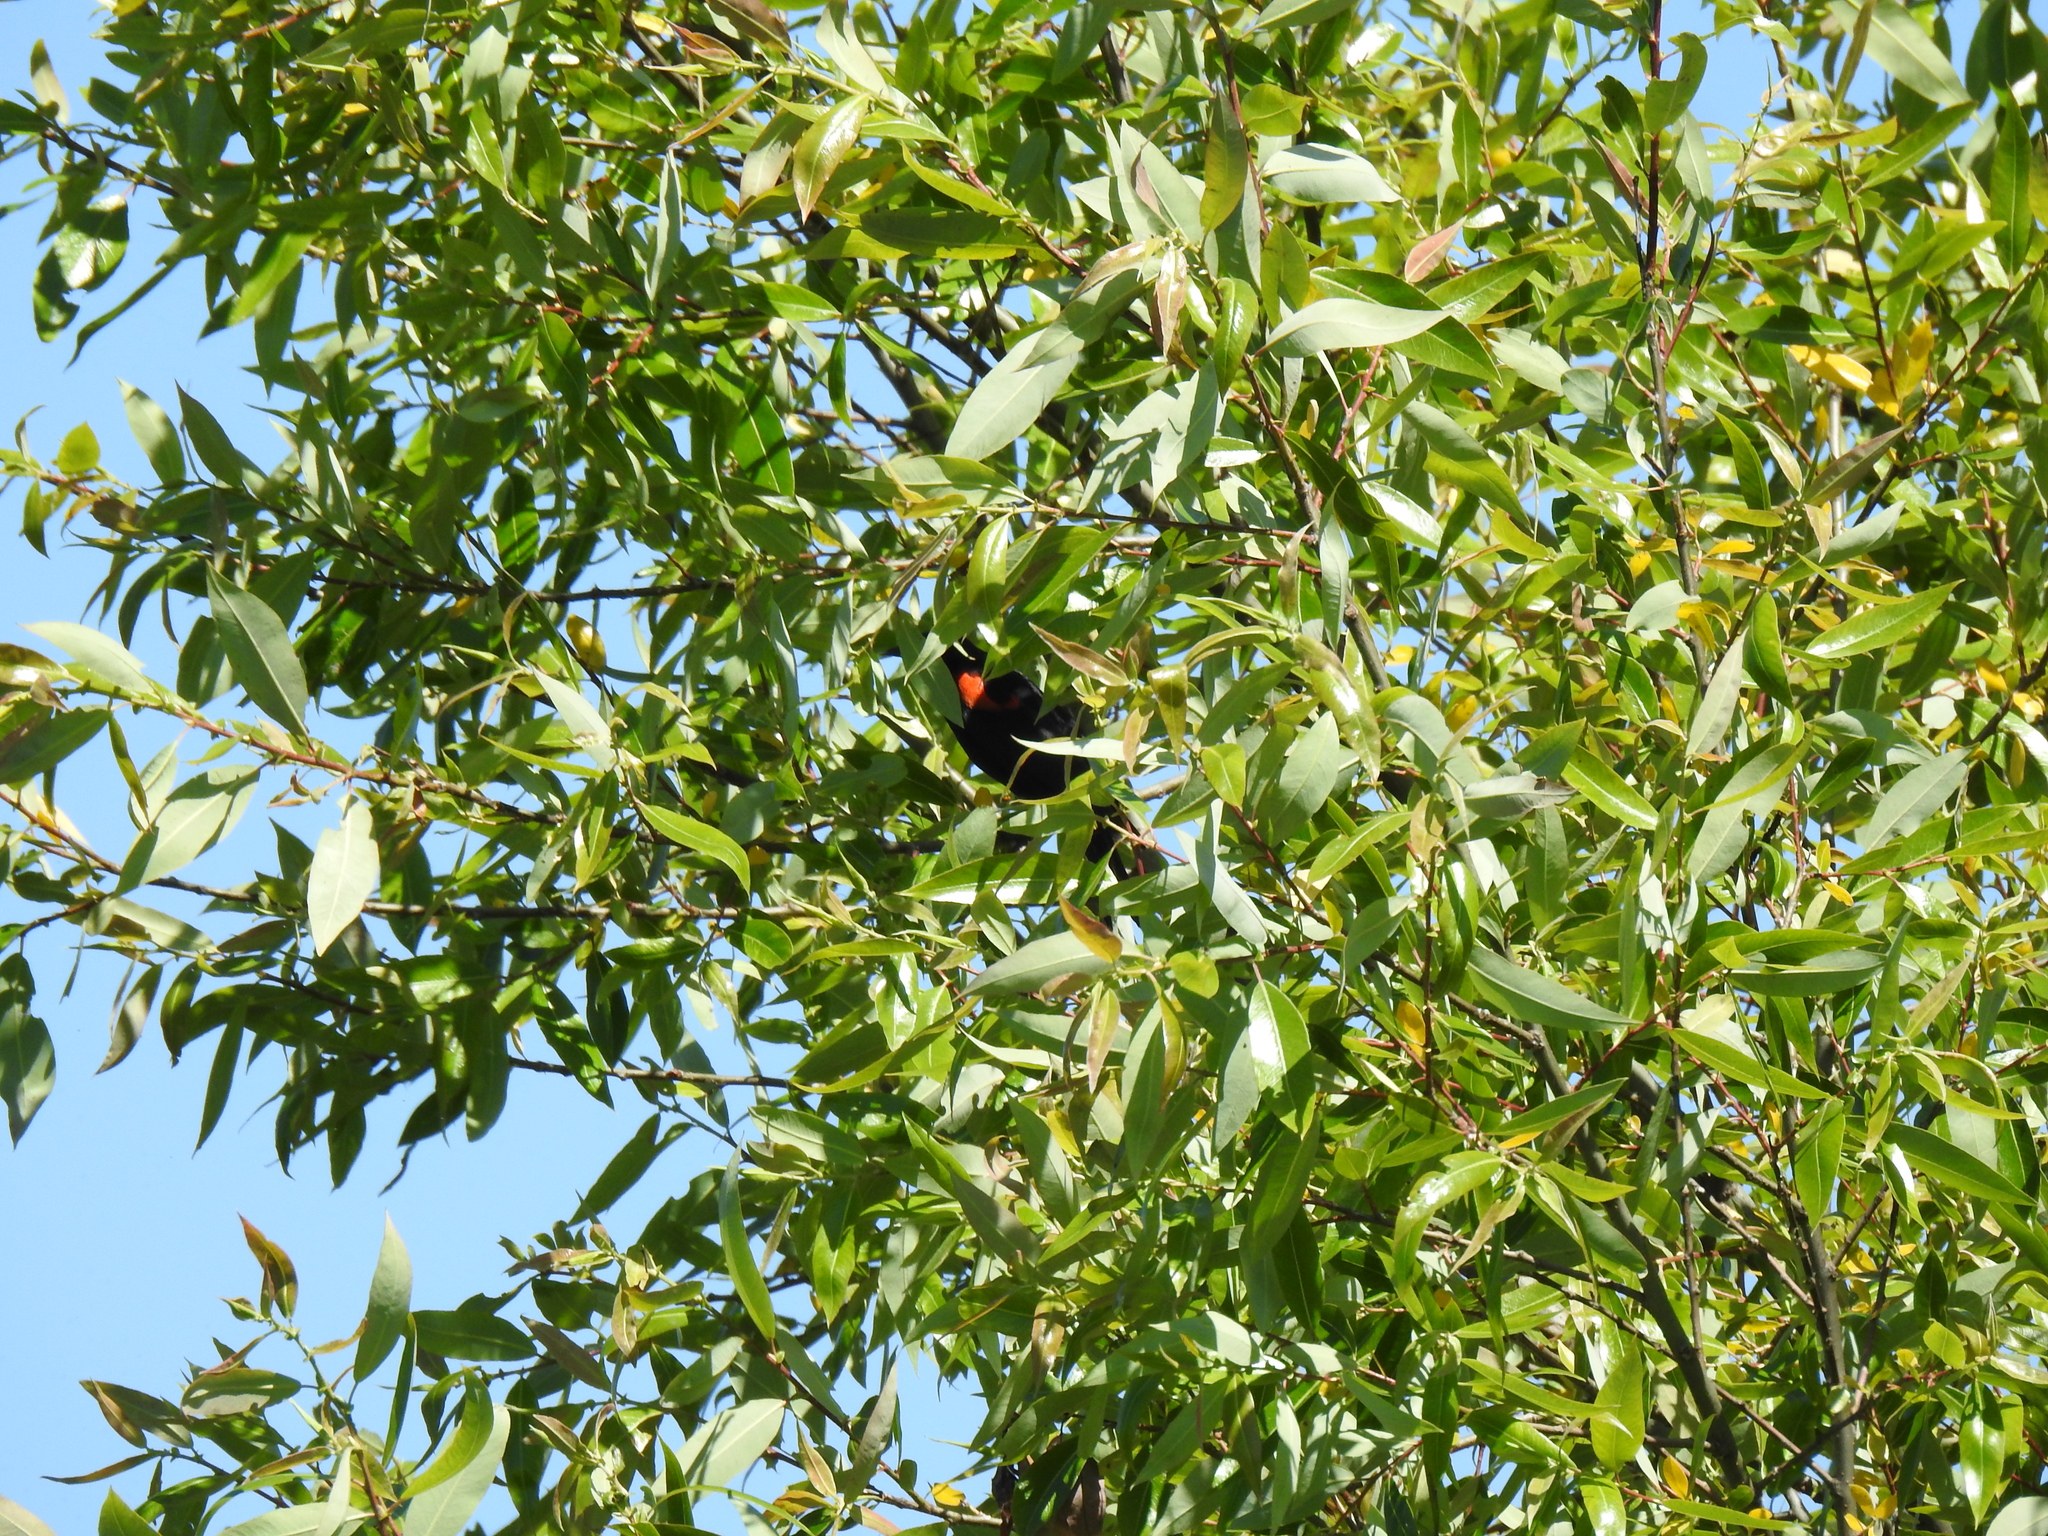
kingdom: Animalia
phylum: Chordata
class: Aves
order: Passeriformes
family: Icteridae
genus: Agelaius
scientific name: Agelaius phoeniceus
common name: Red-winged blackbird
